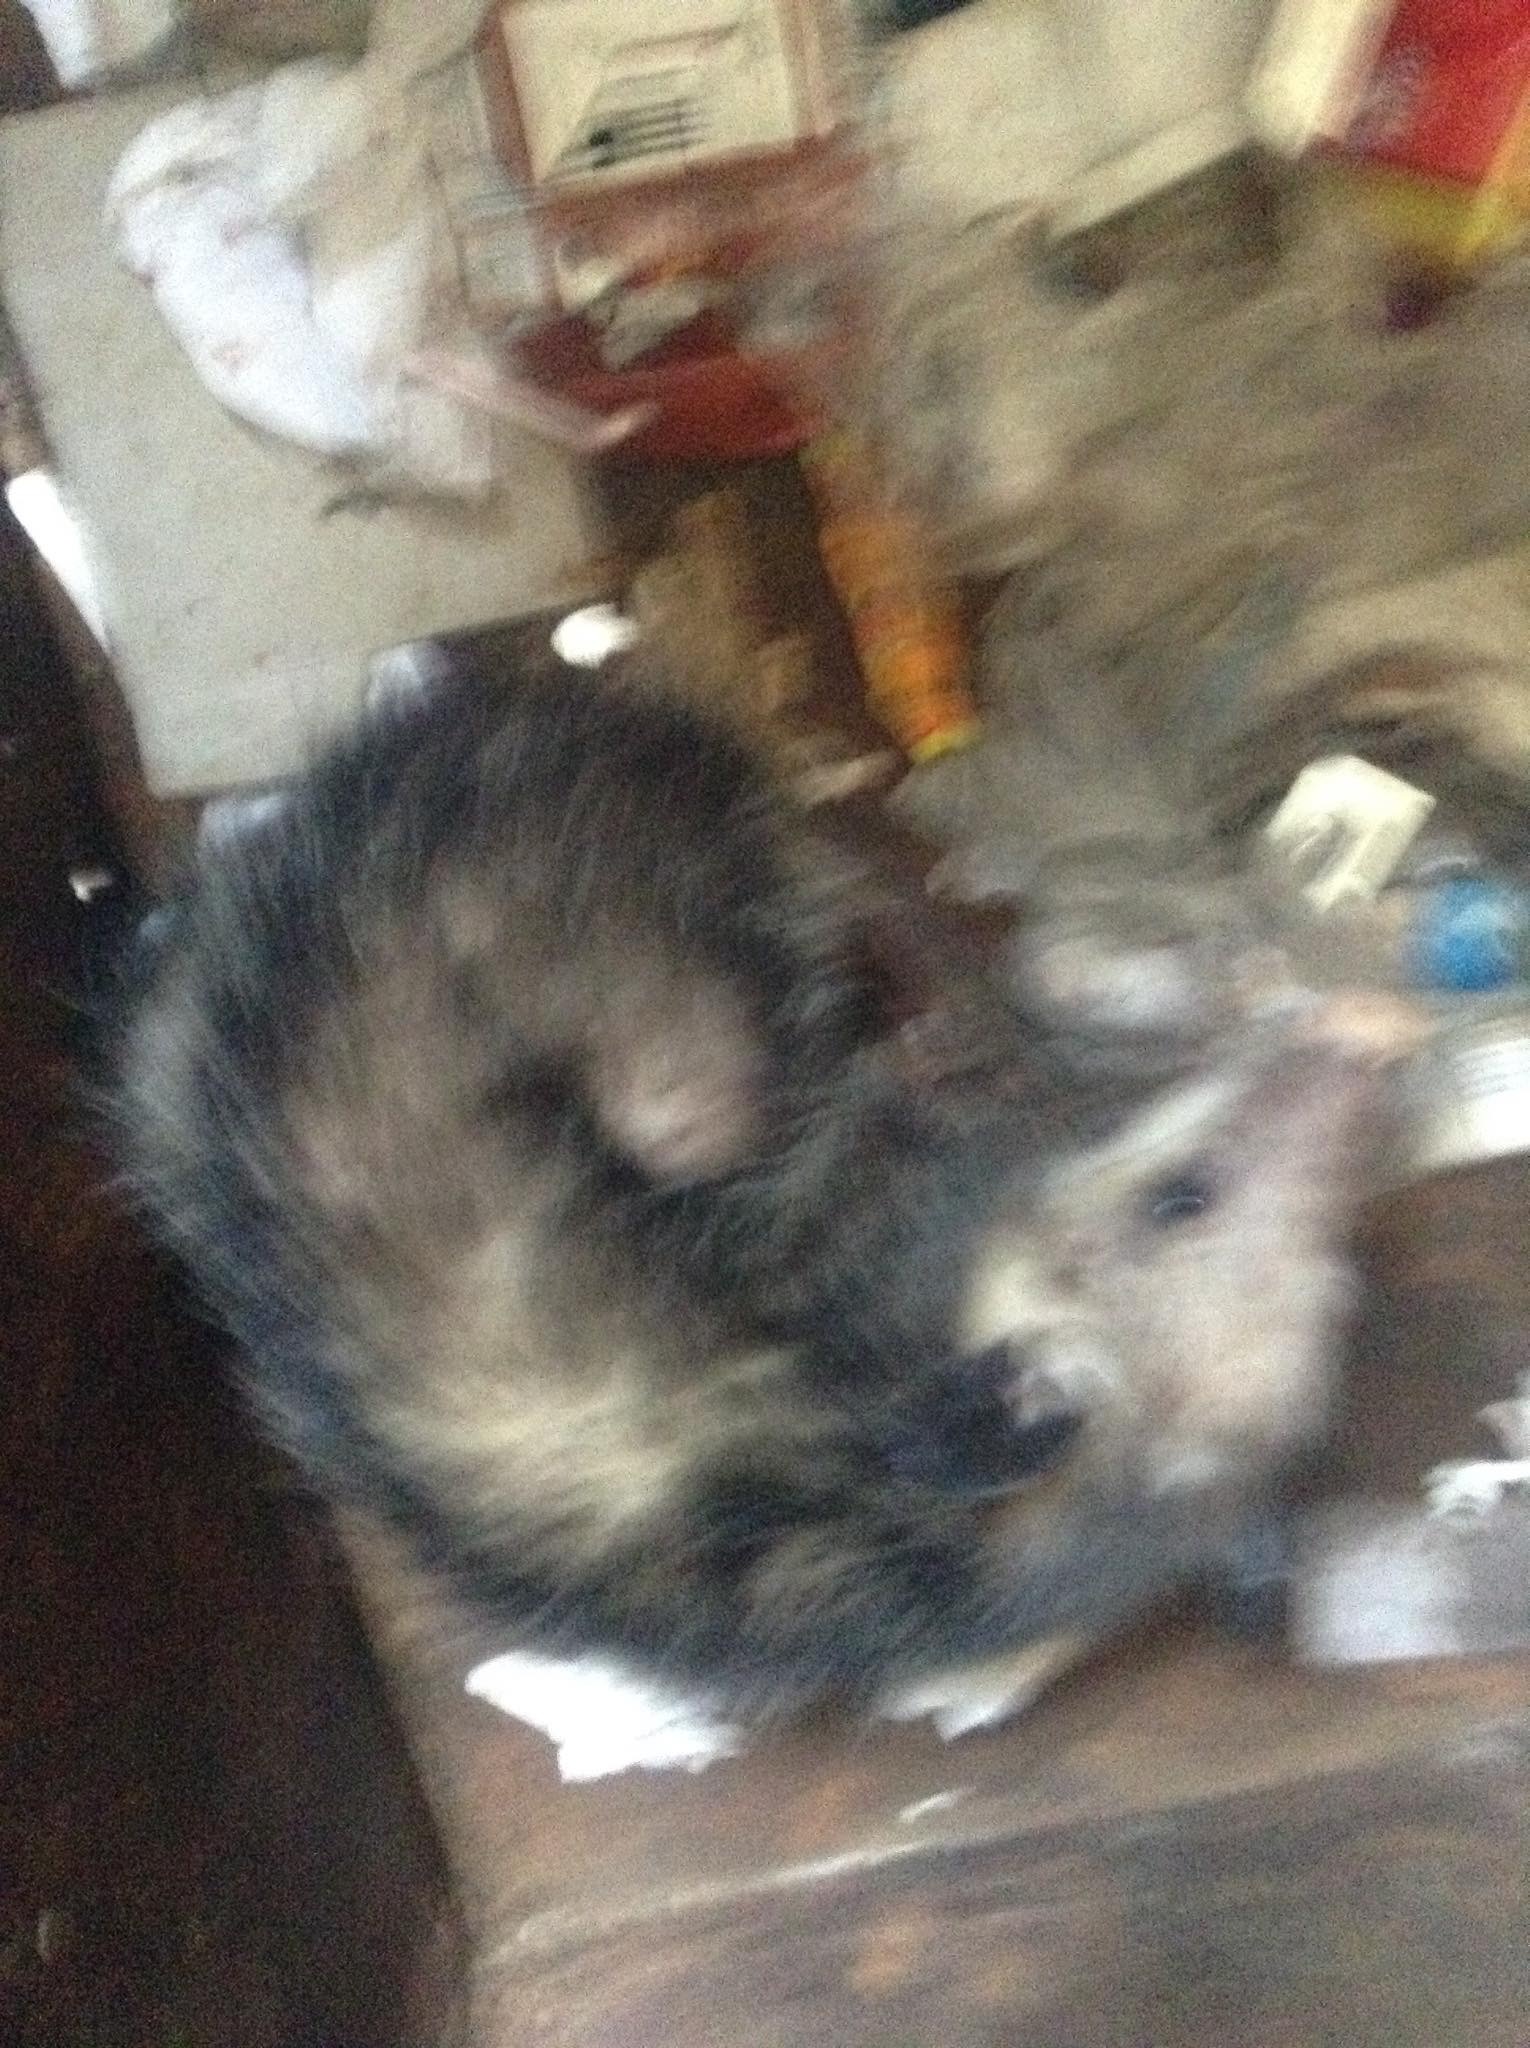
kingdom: Animalia
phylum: Chordata
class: Mammalia
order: Didelphimorphia
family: Didelphidae
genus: Didelphis
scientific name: Didelphis virginiana
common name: Virginia opossum
